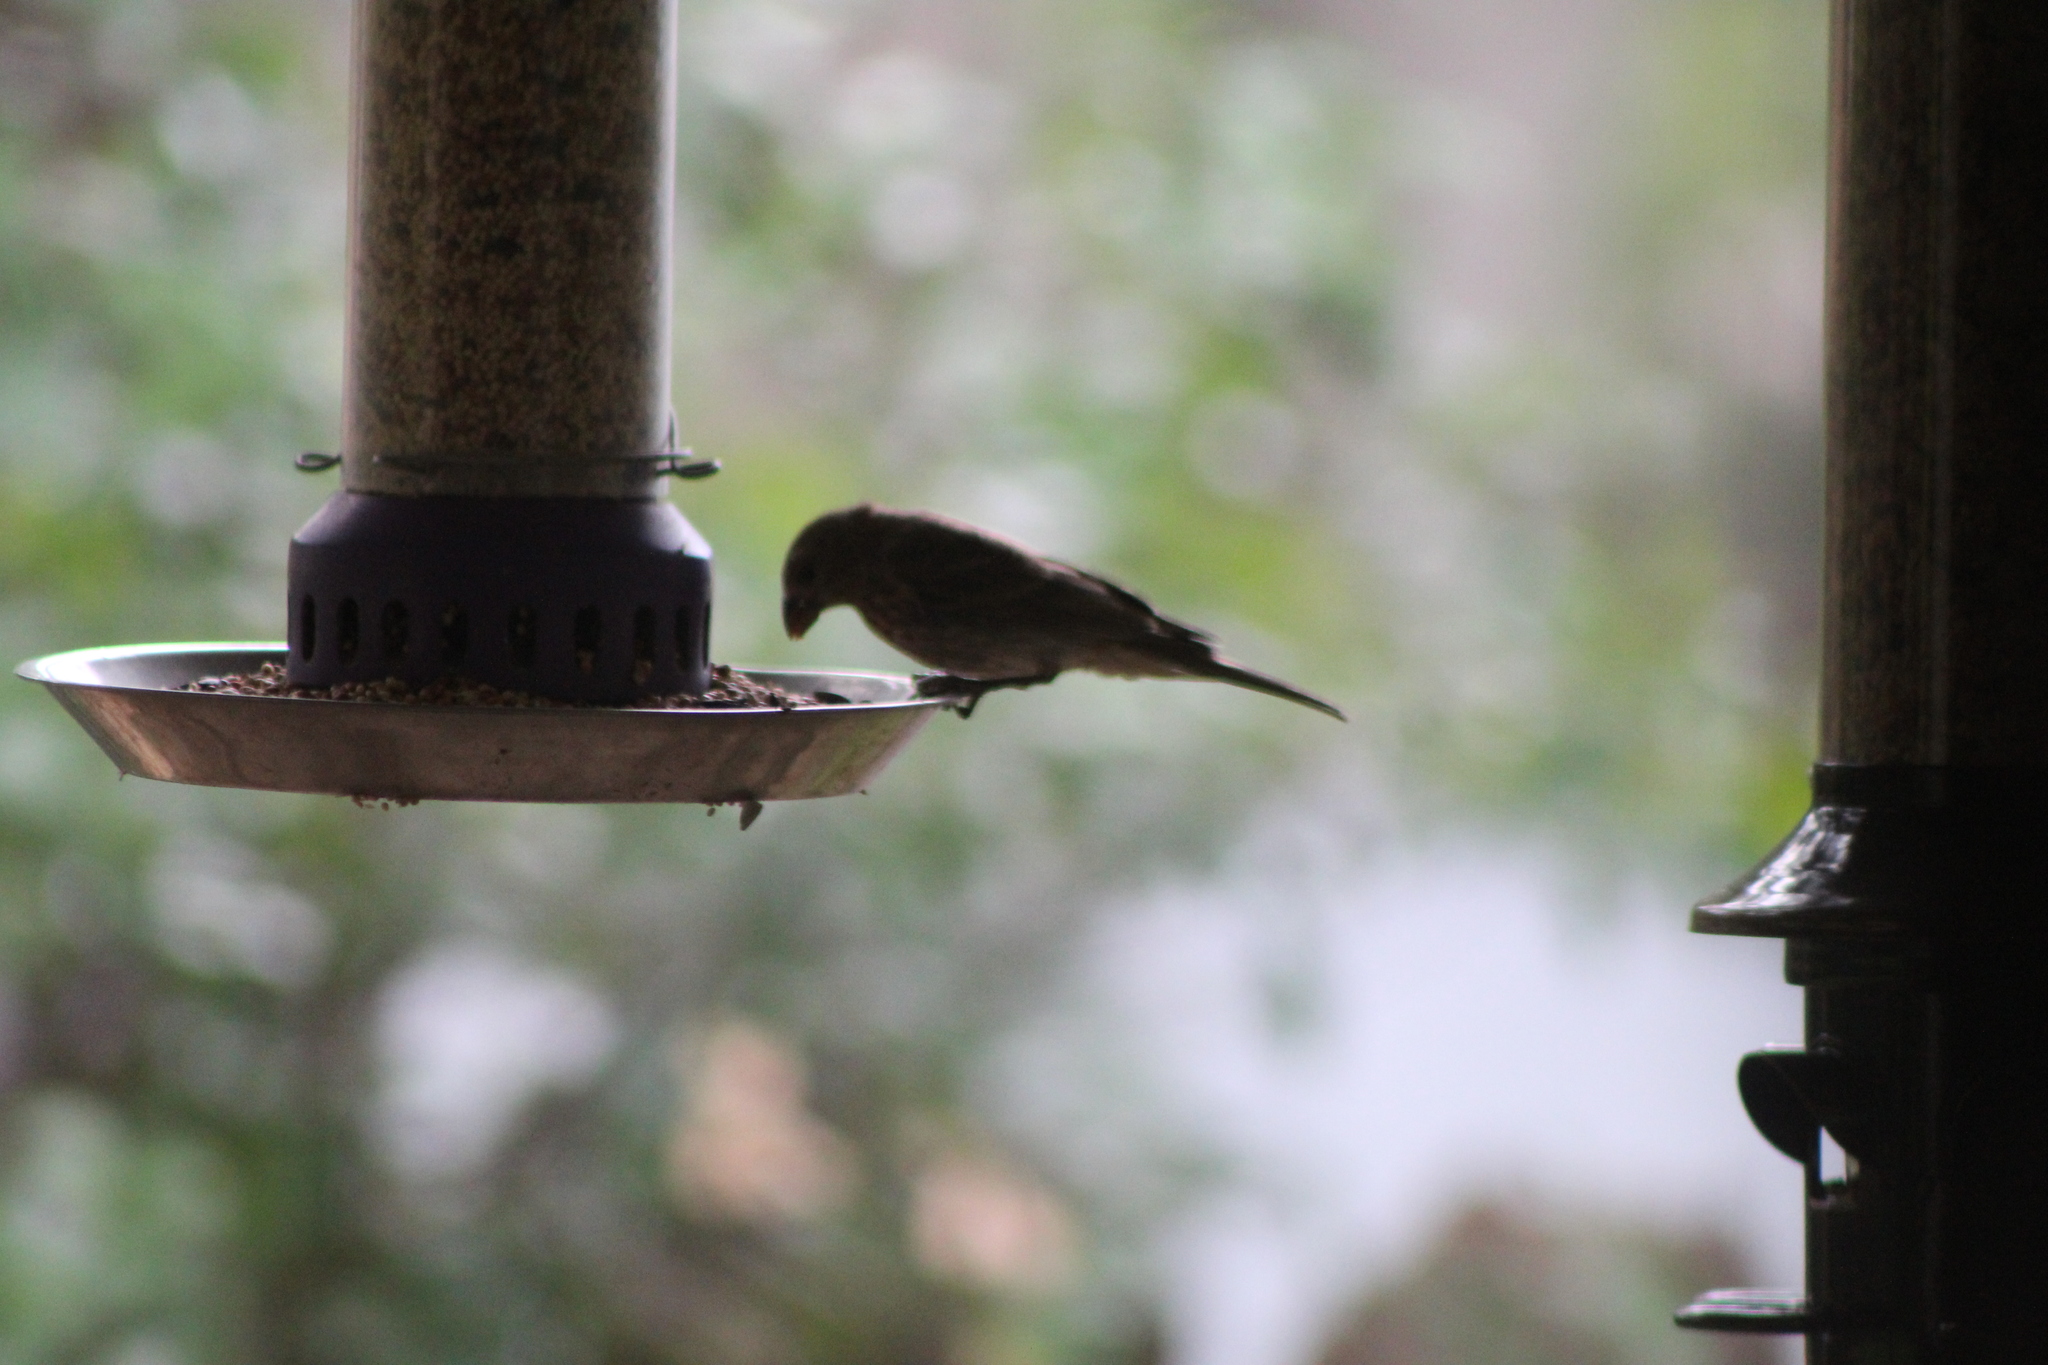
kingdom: Animalia
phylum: Chordata
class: Aves
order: Passeriformes
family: Fringillidae
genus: Haemorhous
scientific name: Haemorhous mexicanus
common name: House finch
